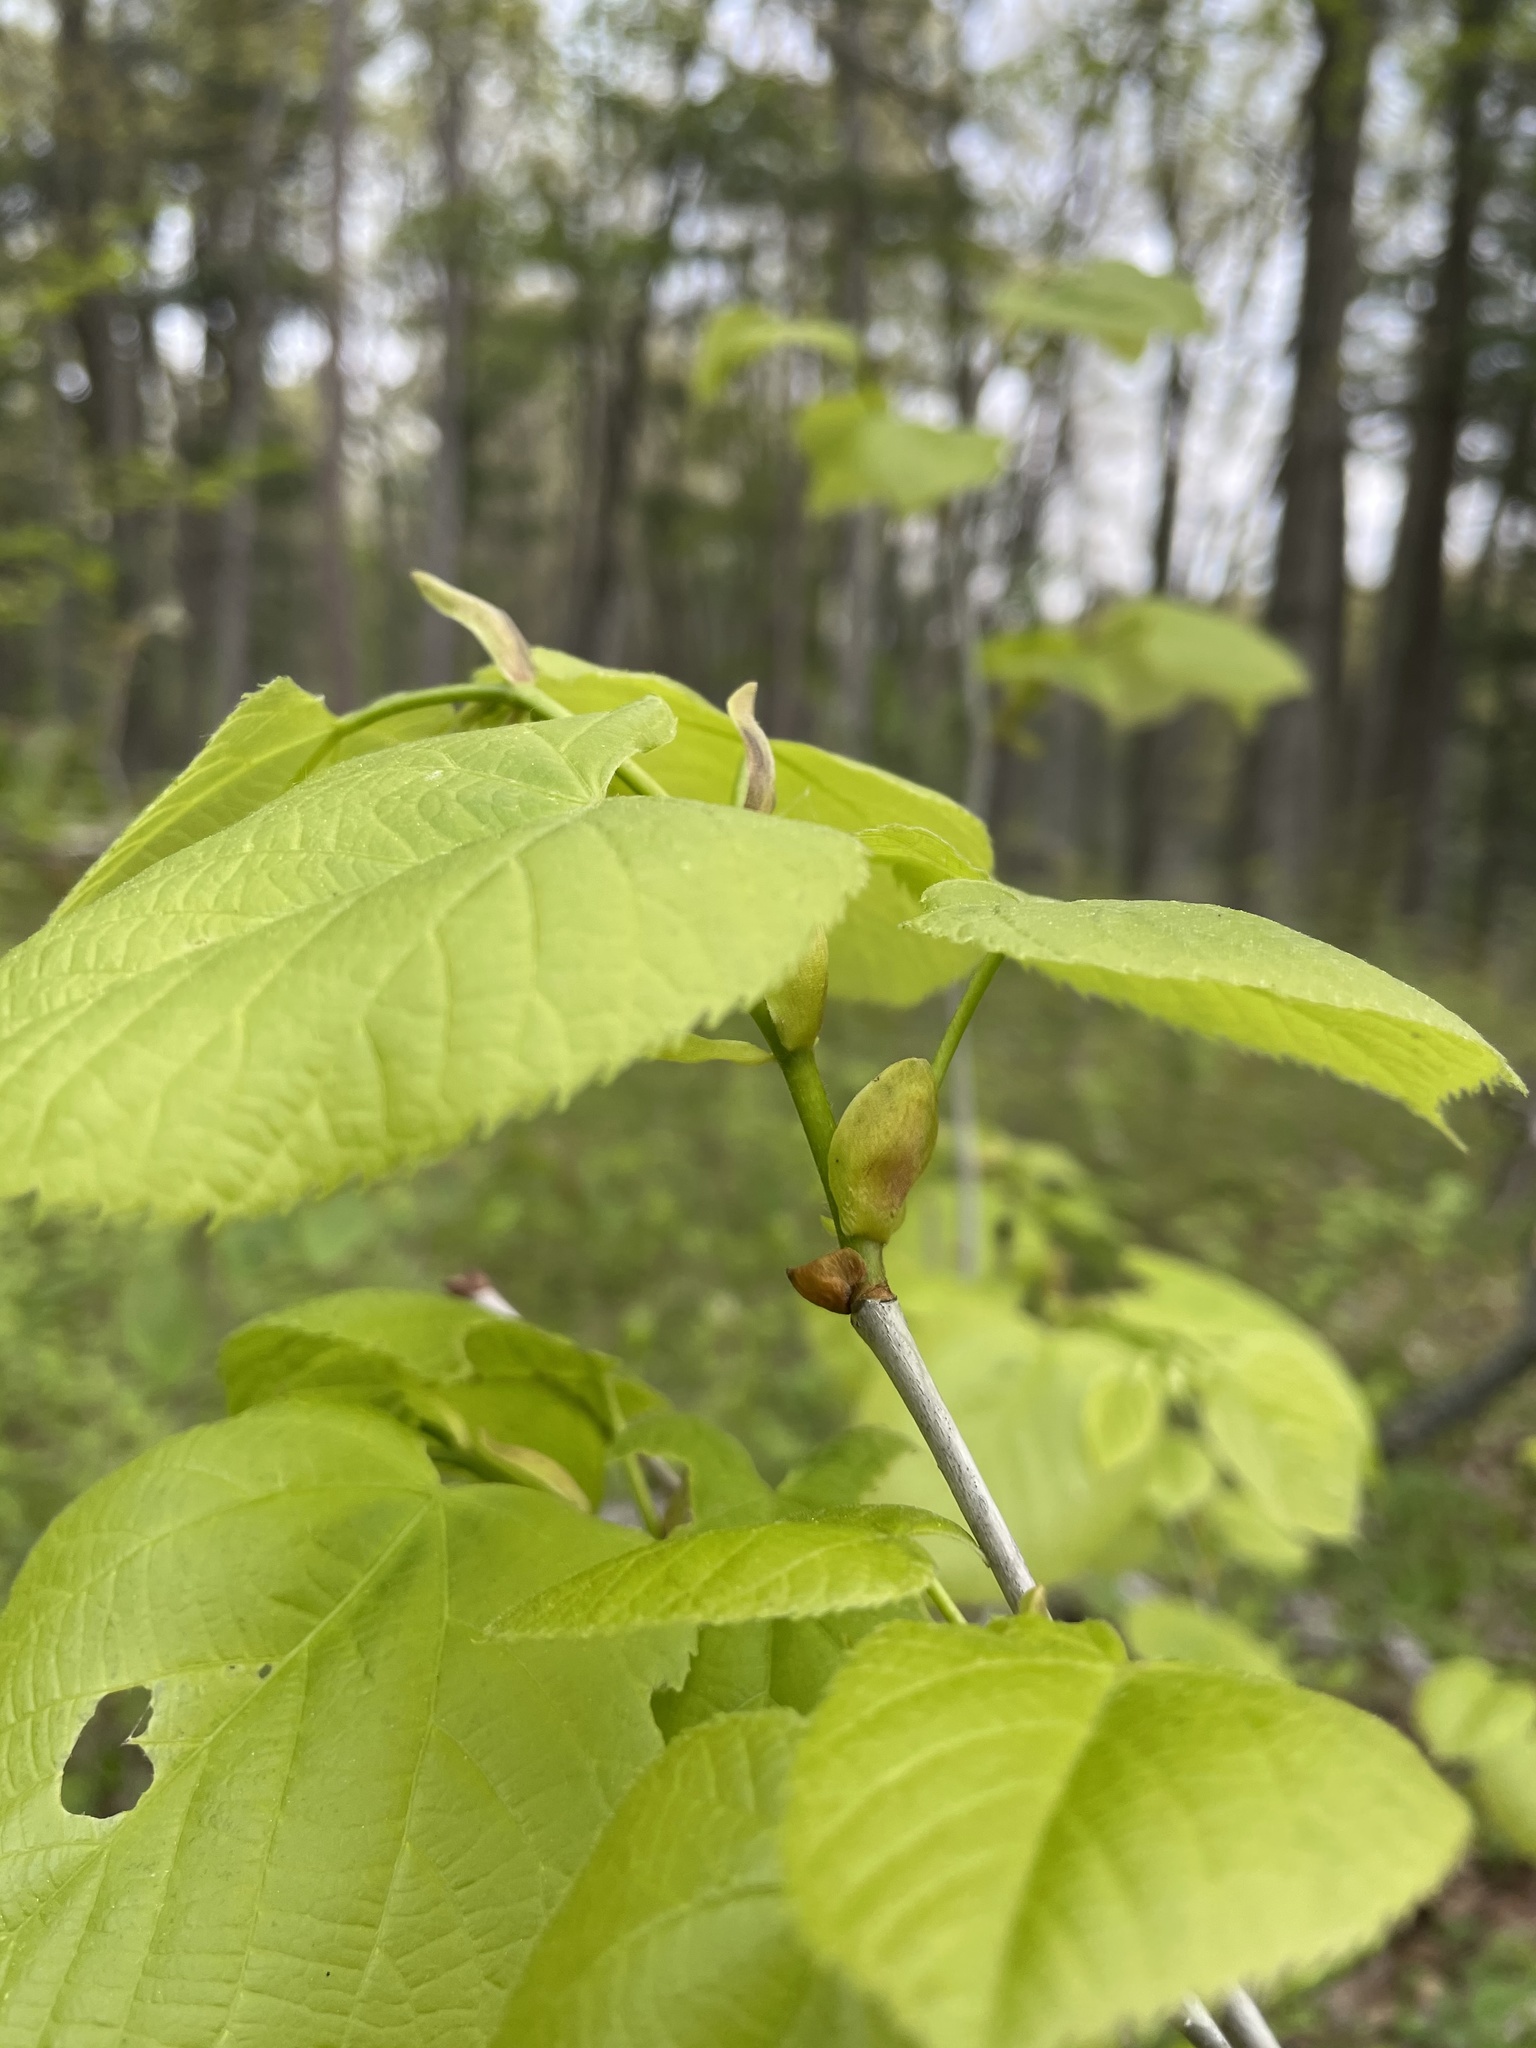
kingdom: Plantae
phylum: Tracheophyta
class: Magnoliopsida
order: Malvales
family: Malvaceae
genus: Tilia
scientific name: Tilia americana
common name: Basswood
